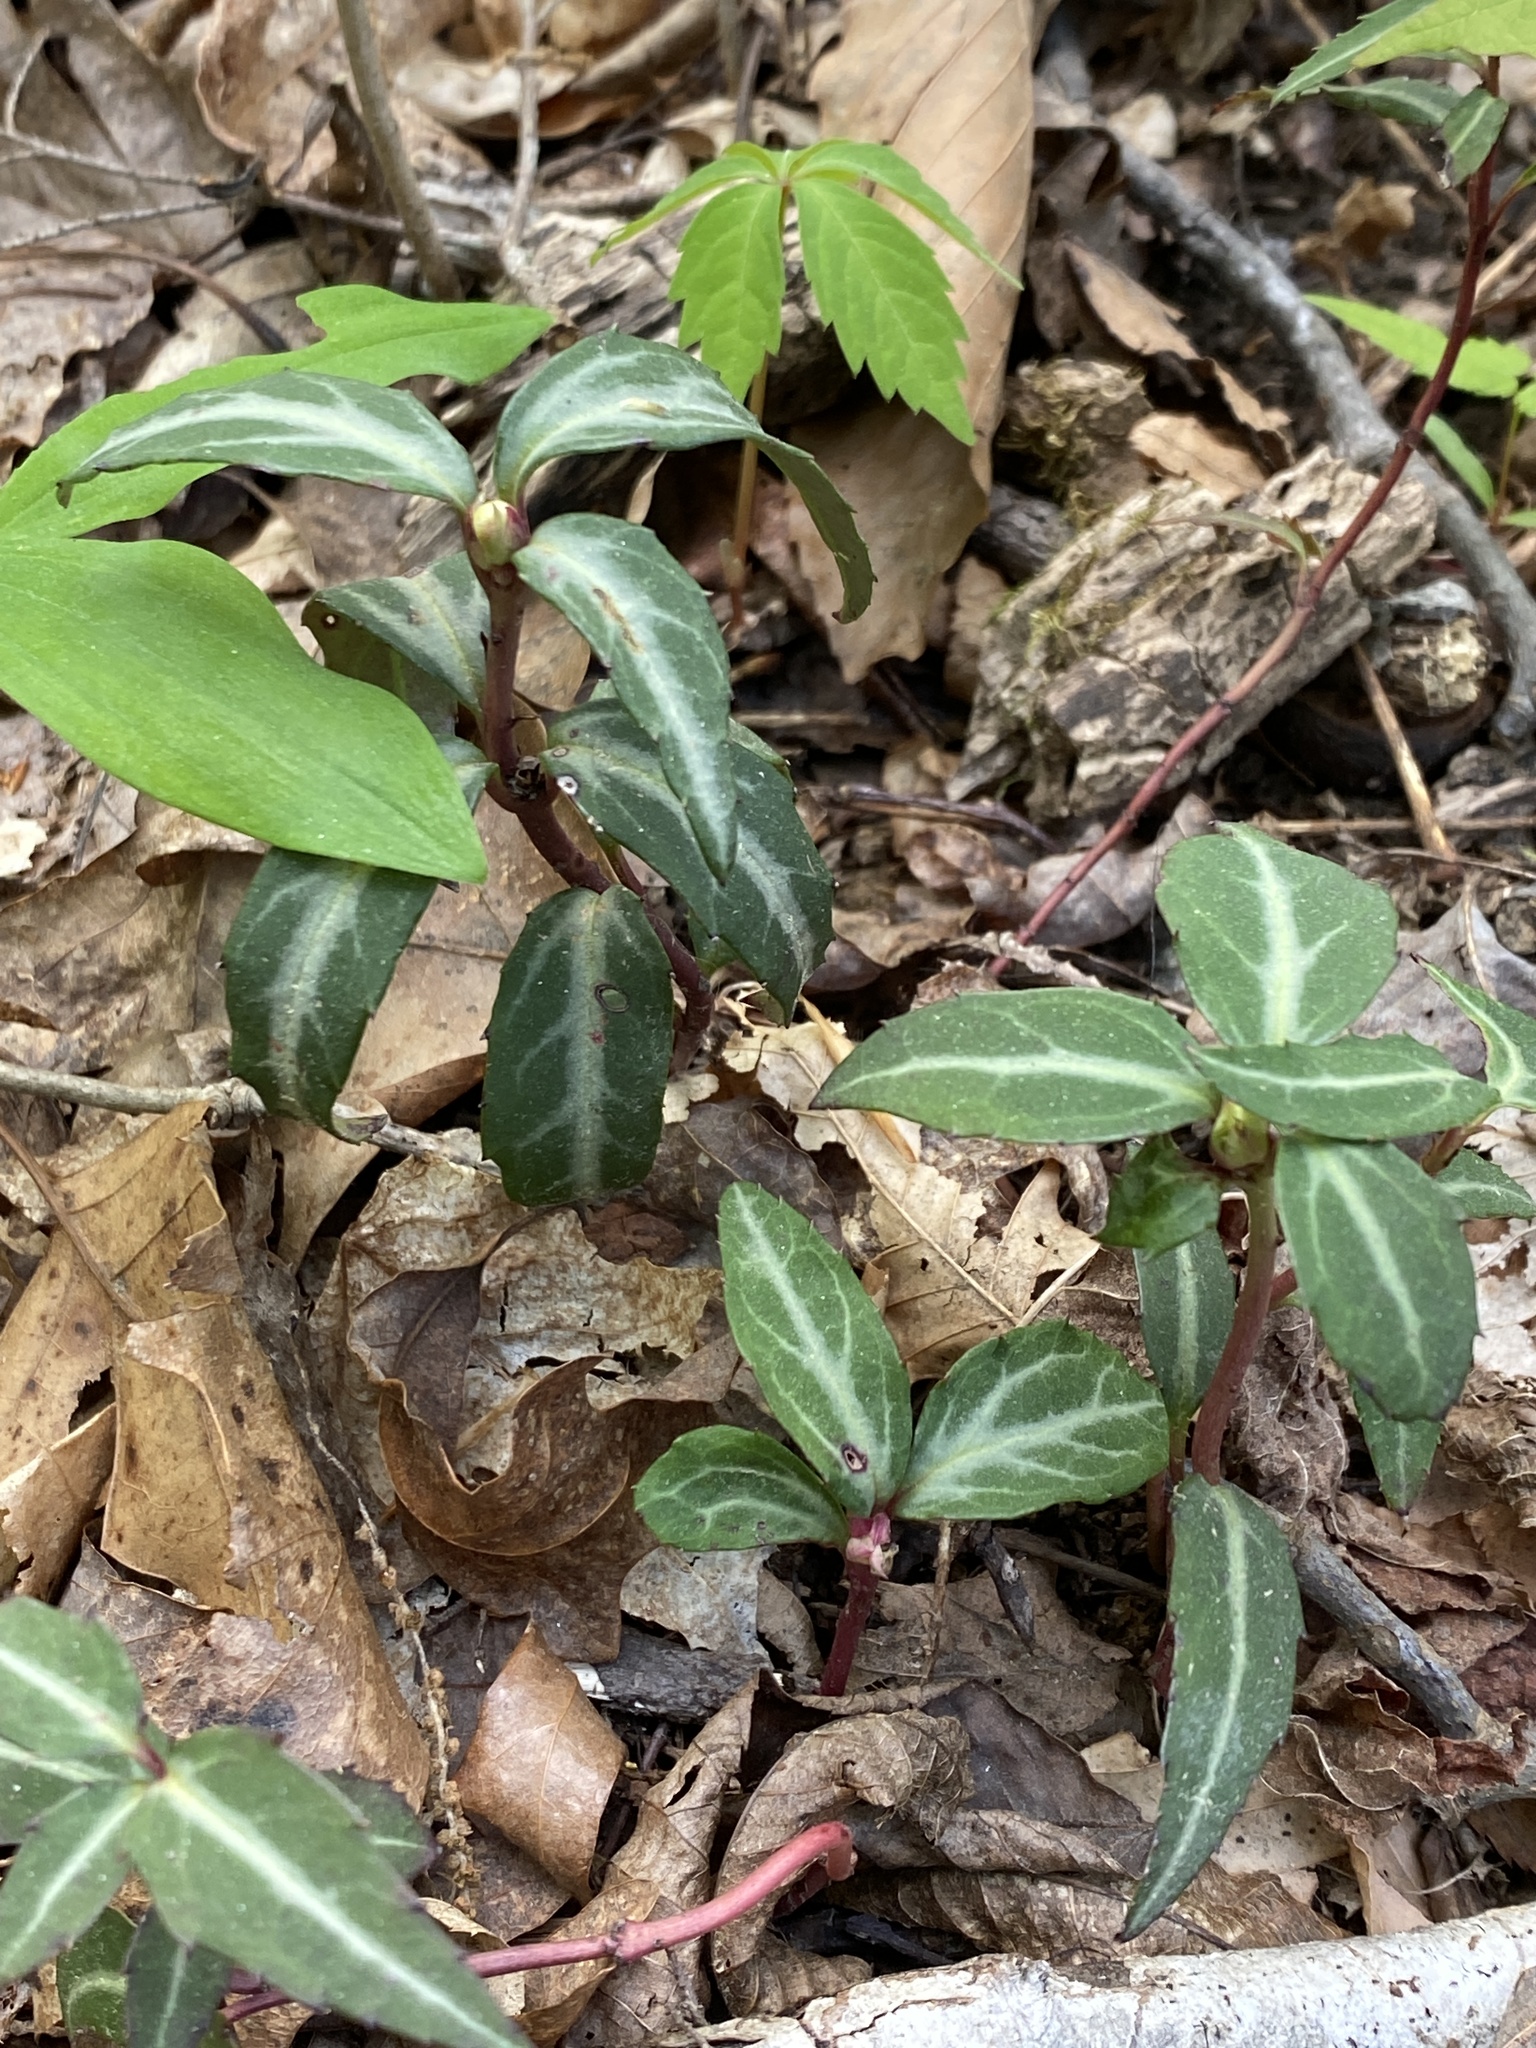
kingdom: Plantae
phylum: Tracheophyta
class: Magnoliopsida
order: Ericales
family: Ericaceae
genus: Chimaphila
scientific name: Chimaphila maculata
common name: Spotted pipsissewa
